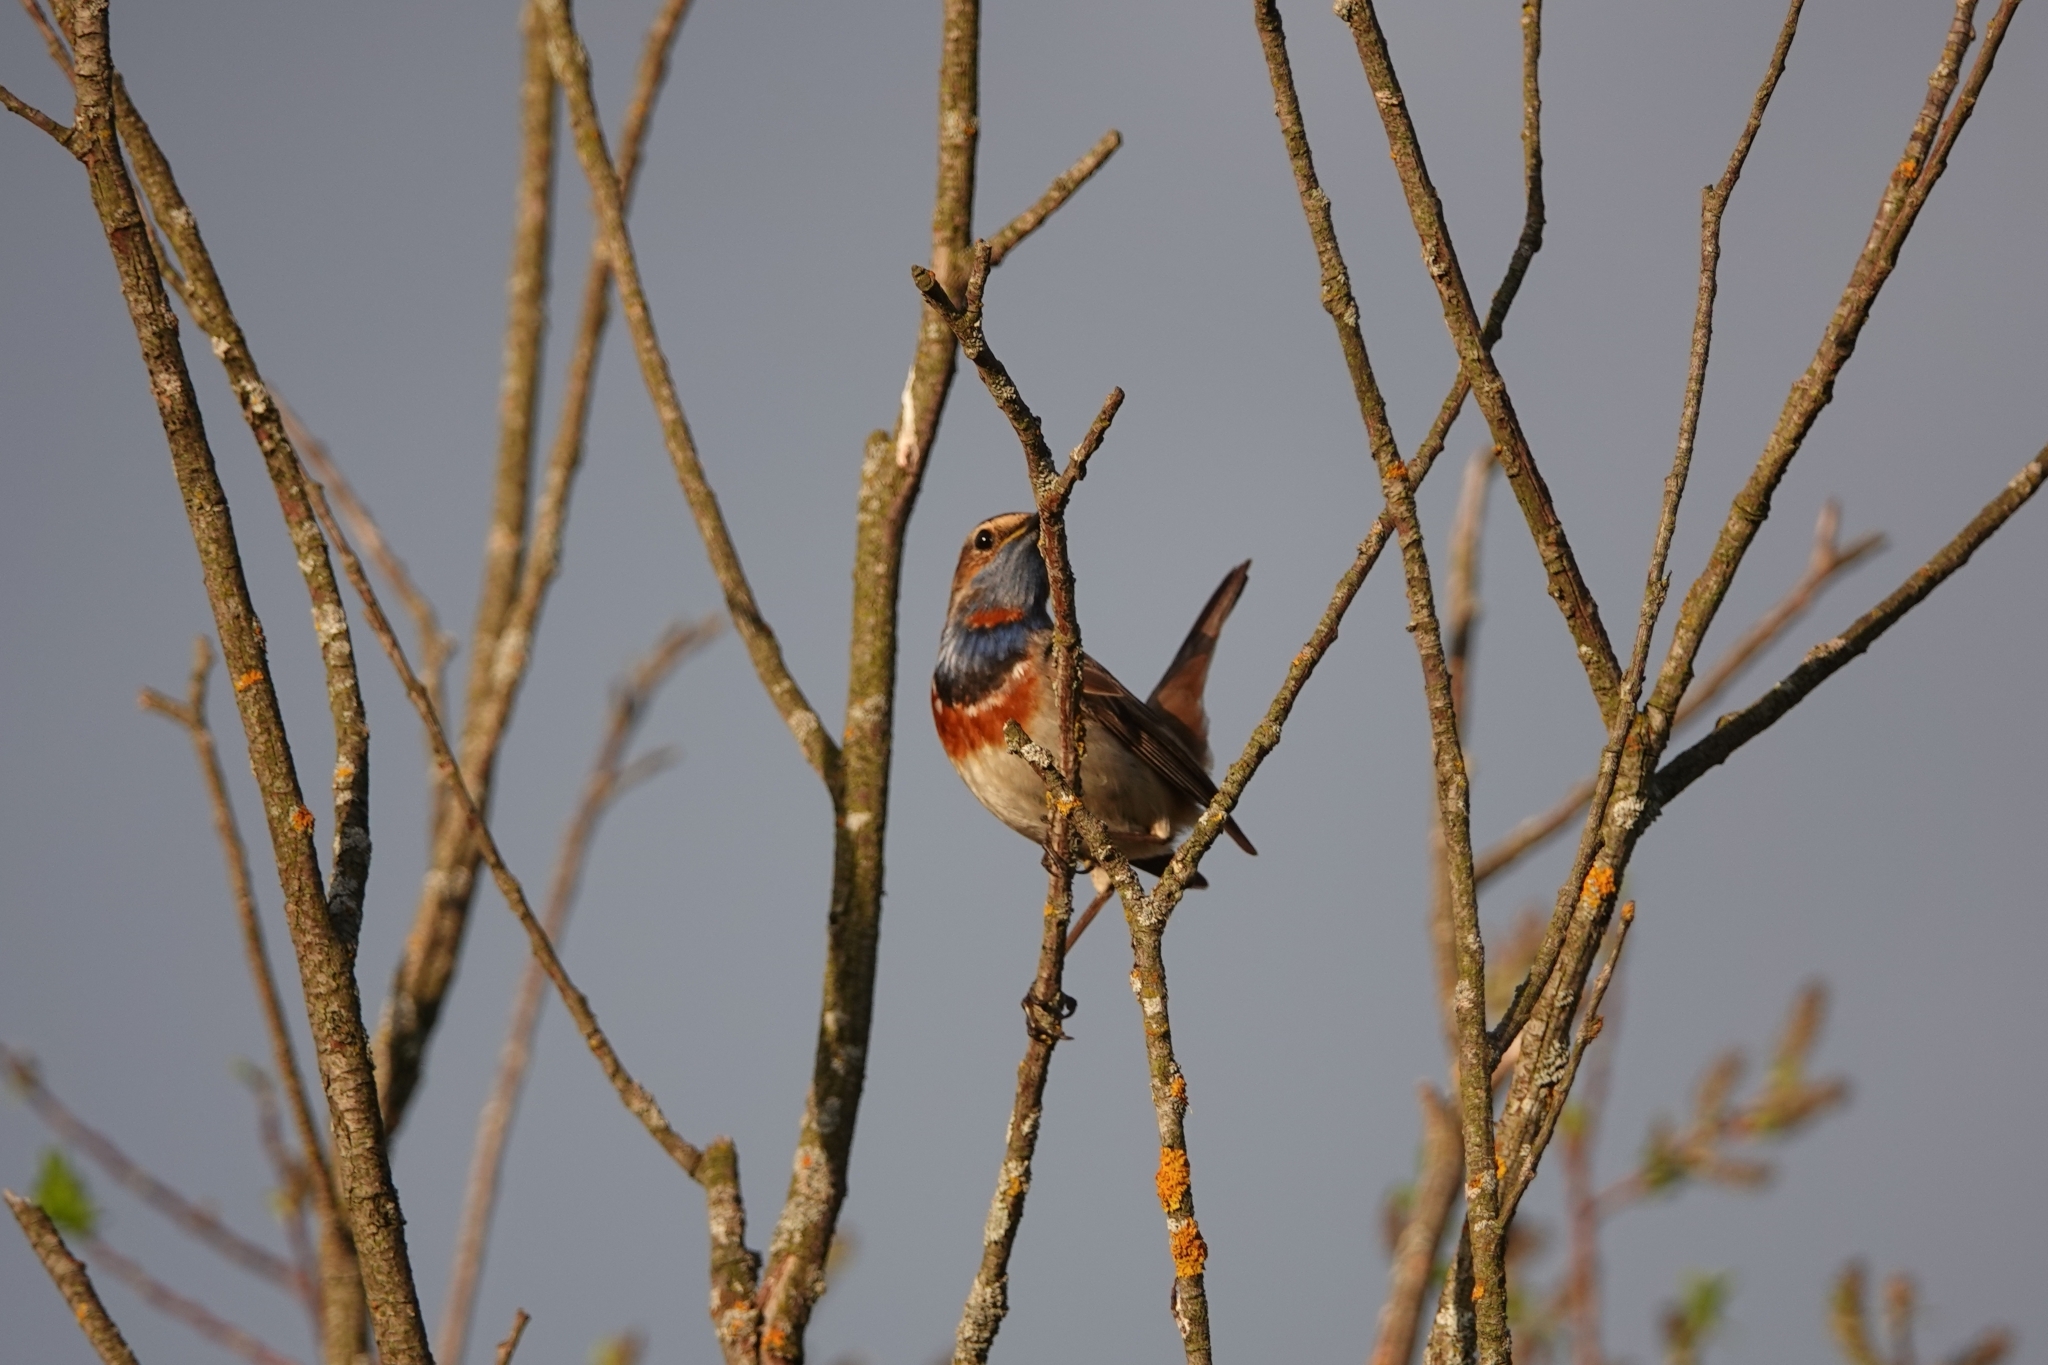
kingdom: Animalia
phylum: Chordata
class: Aves
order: Passeriformes
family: Muscicapidae
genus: Luscinia
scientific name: Luscinia svecica
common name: Bluethroat
